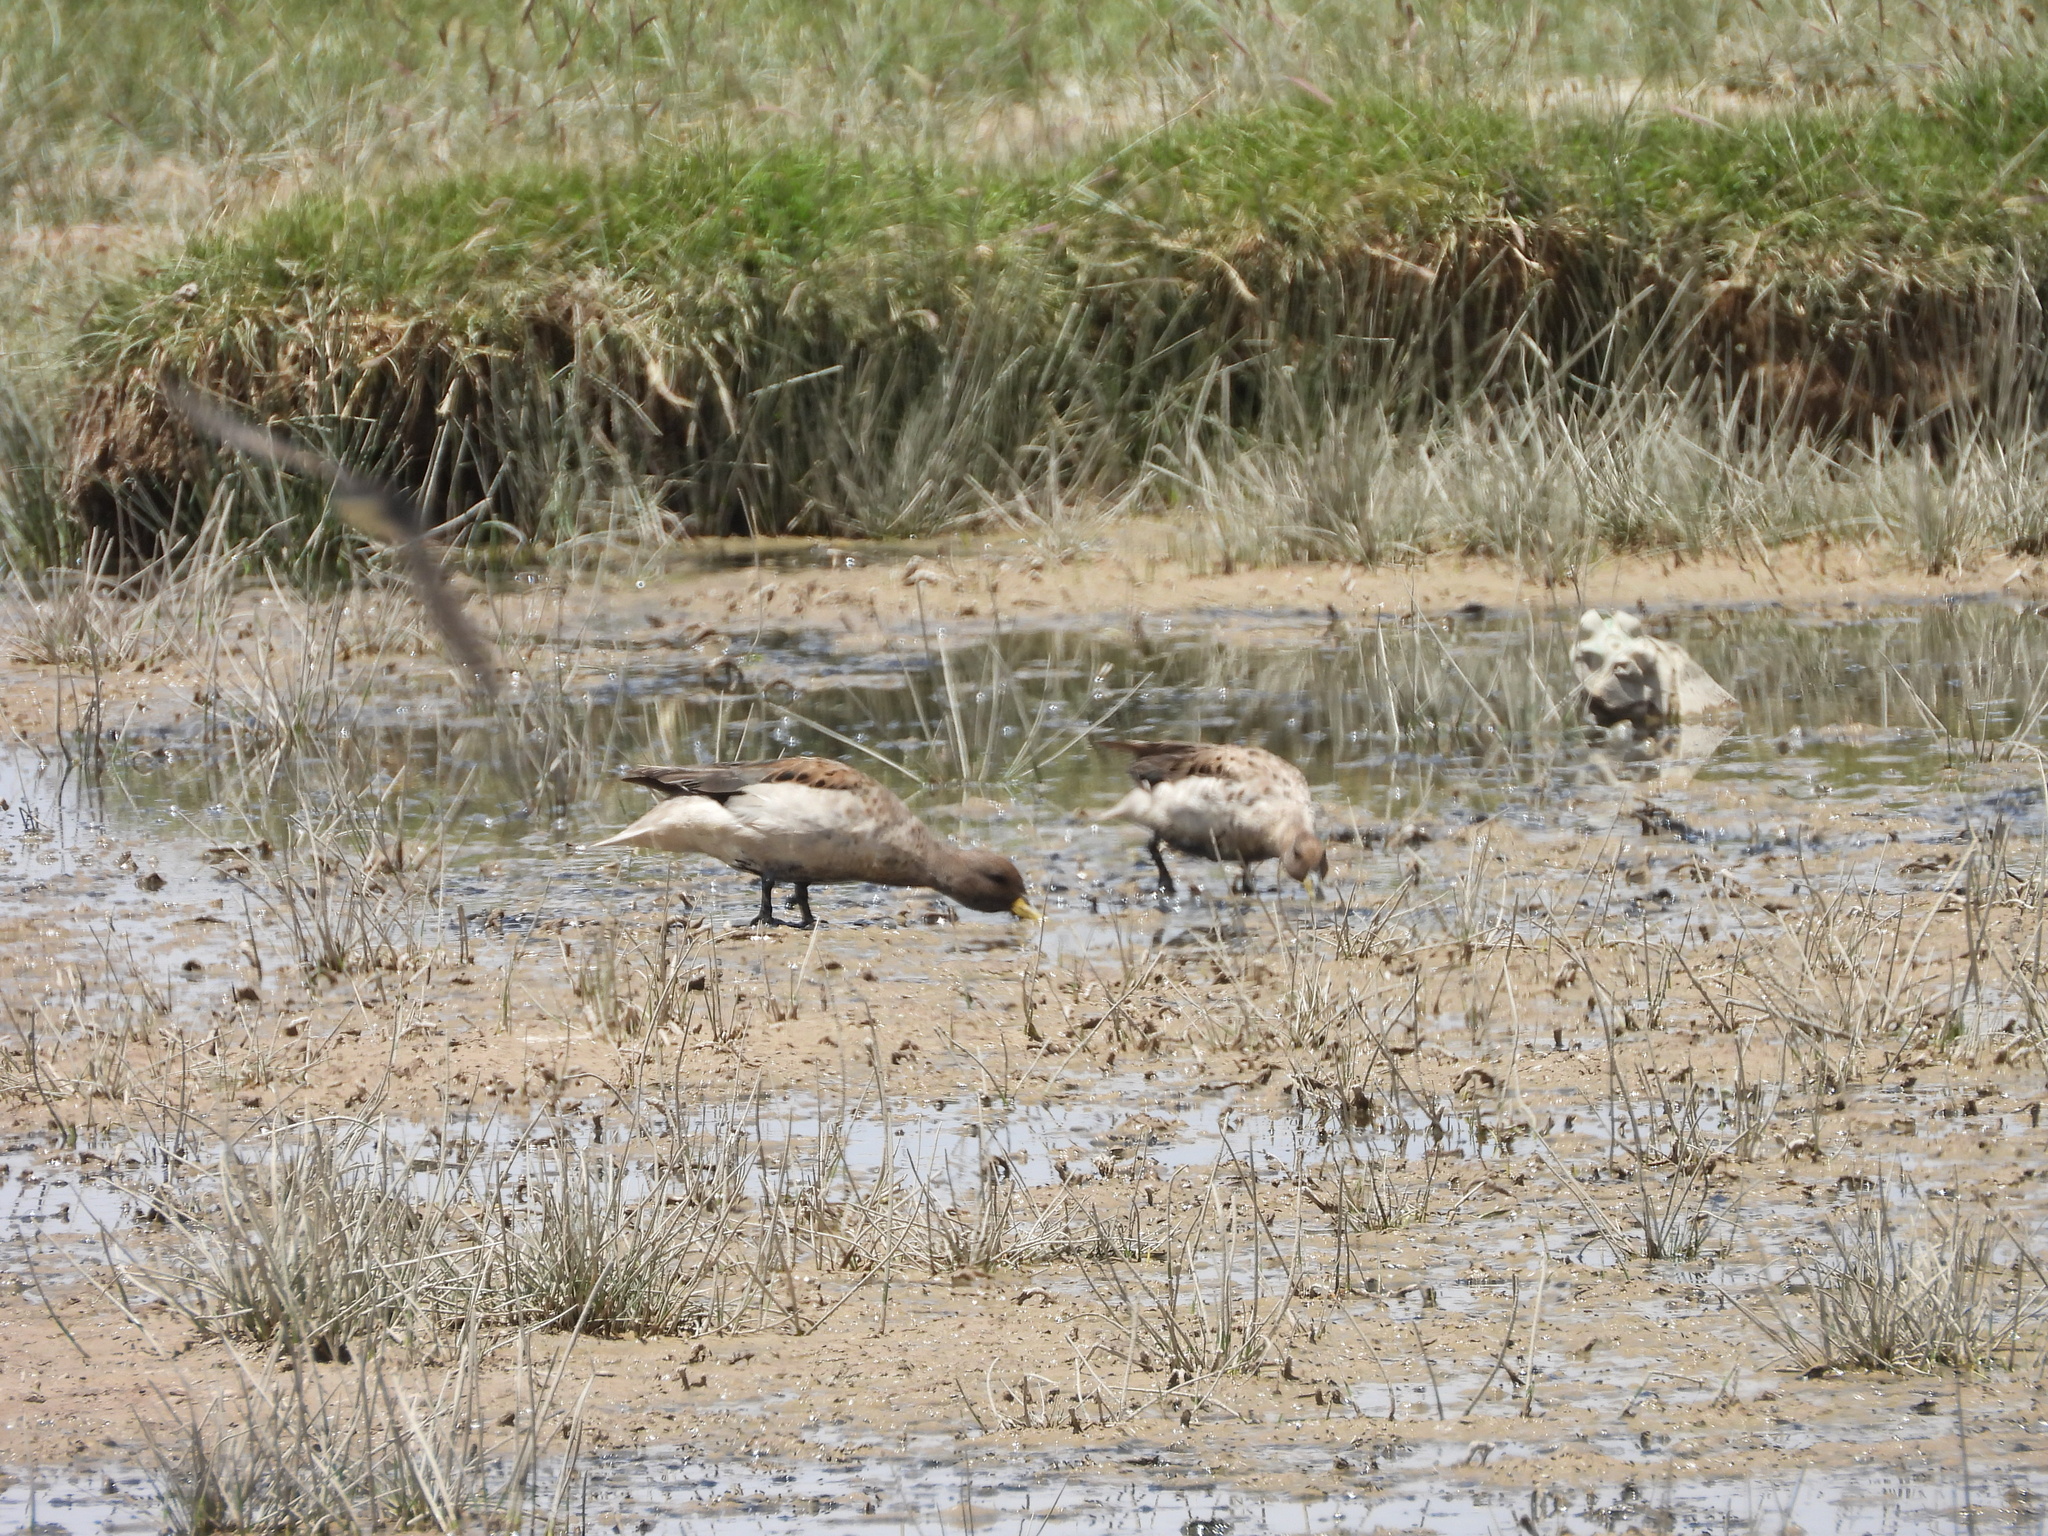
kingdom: Animalia
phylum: Chordata
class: Aves
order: Anseriformes
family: Anatidae
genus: Anas
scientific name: Anas flavirostris
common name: Yellow-billed teal
